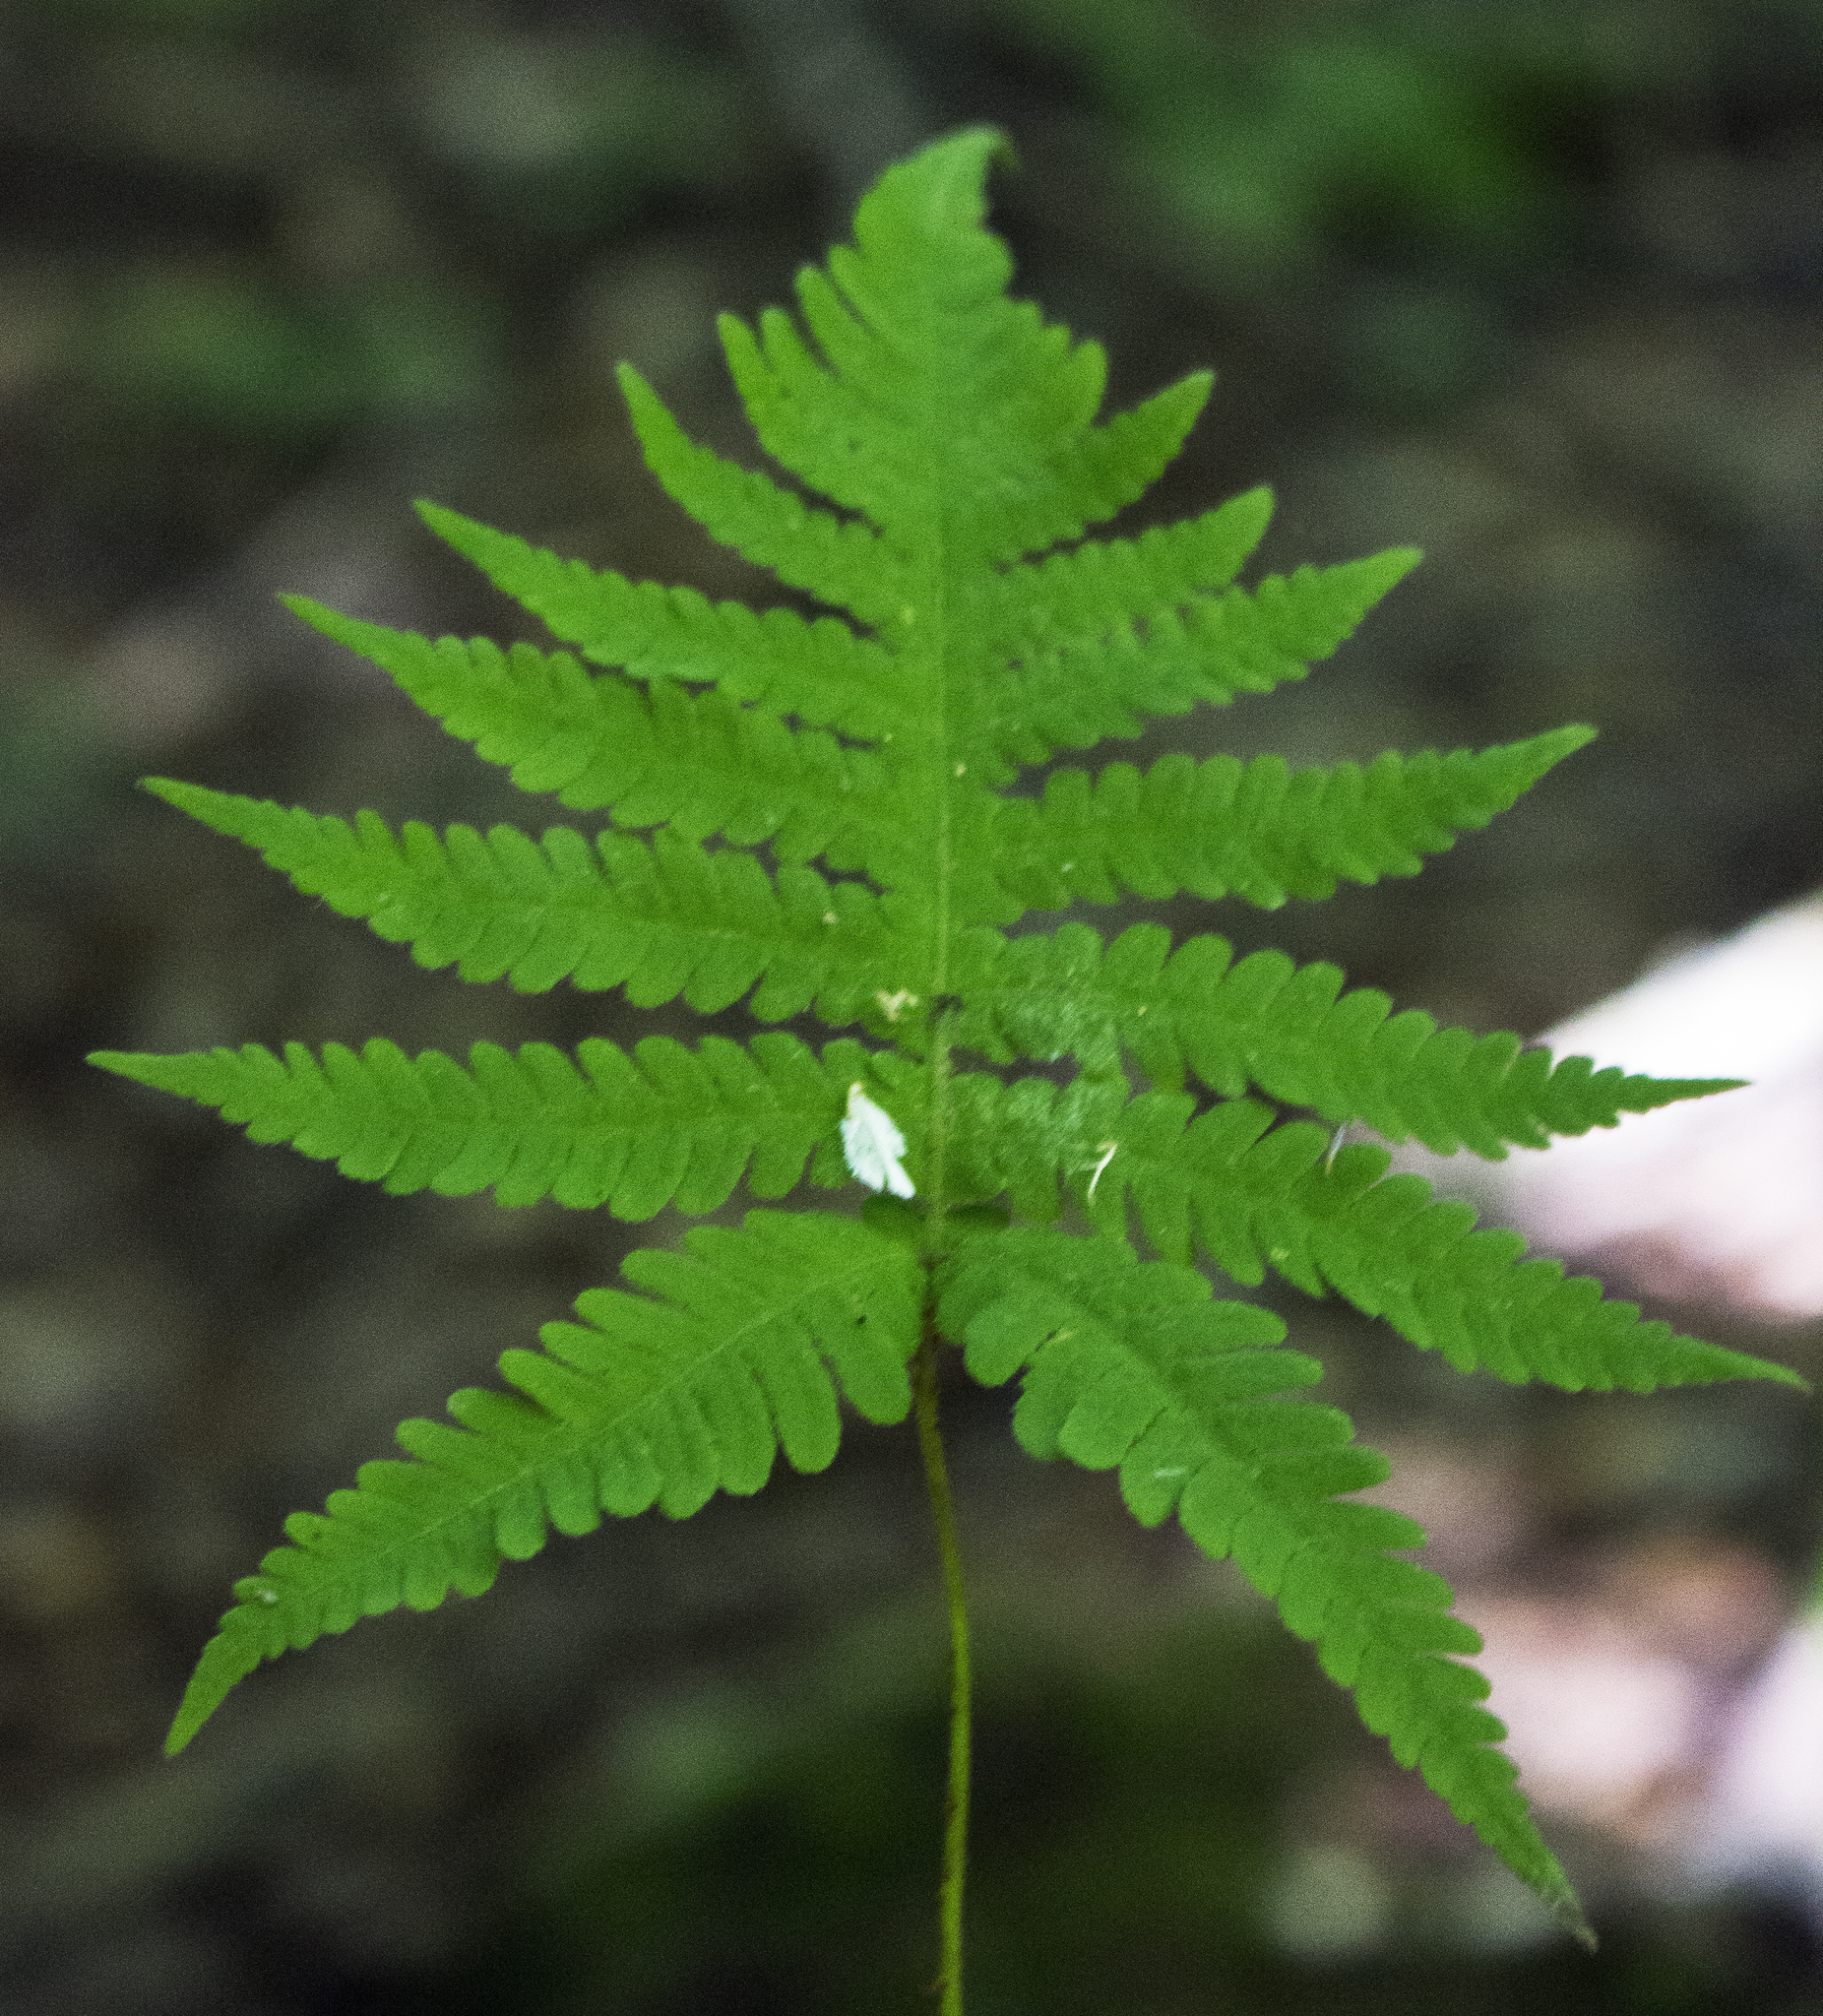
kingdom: Plantae
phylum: Tracheophyta
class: Polypodiopsida
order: Polypodiales
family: Thelypteridaceae
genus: Phegopteris
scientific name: Phegopteris connectilis
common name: Beech fern
